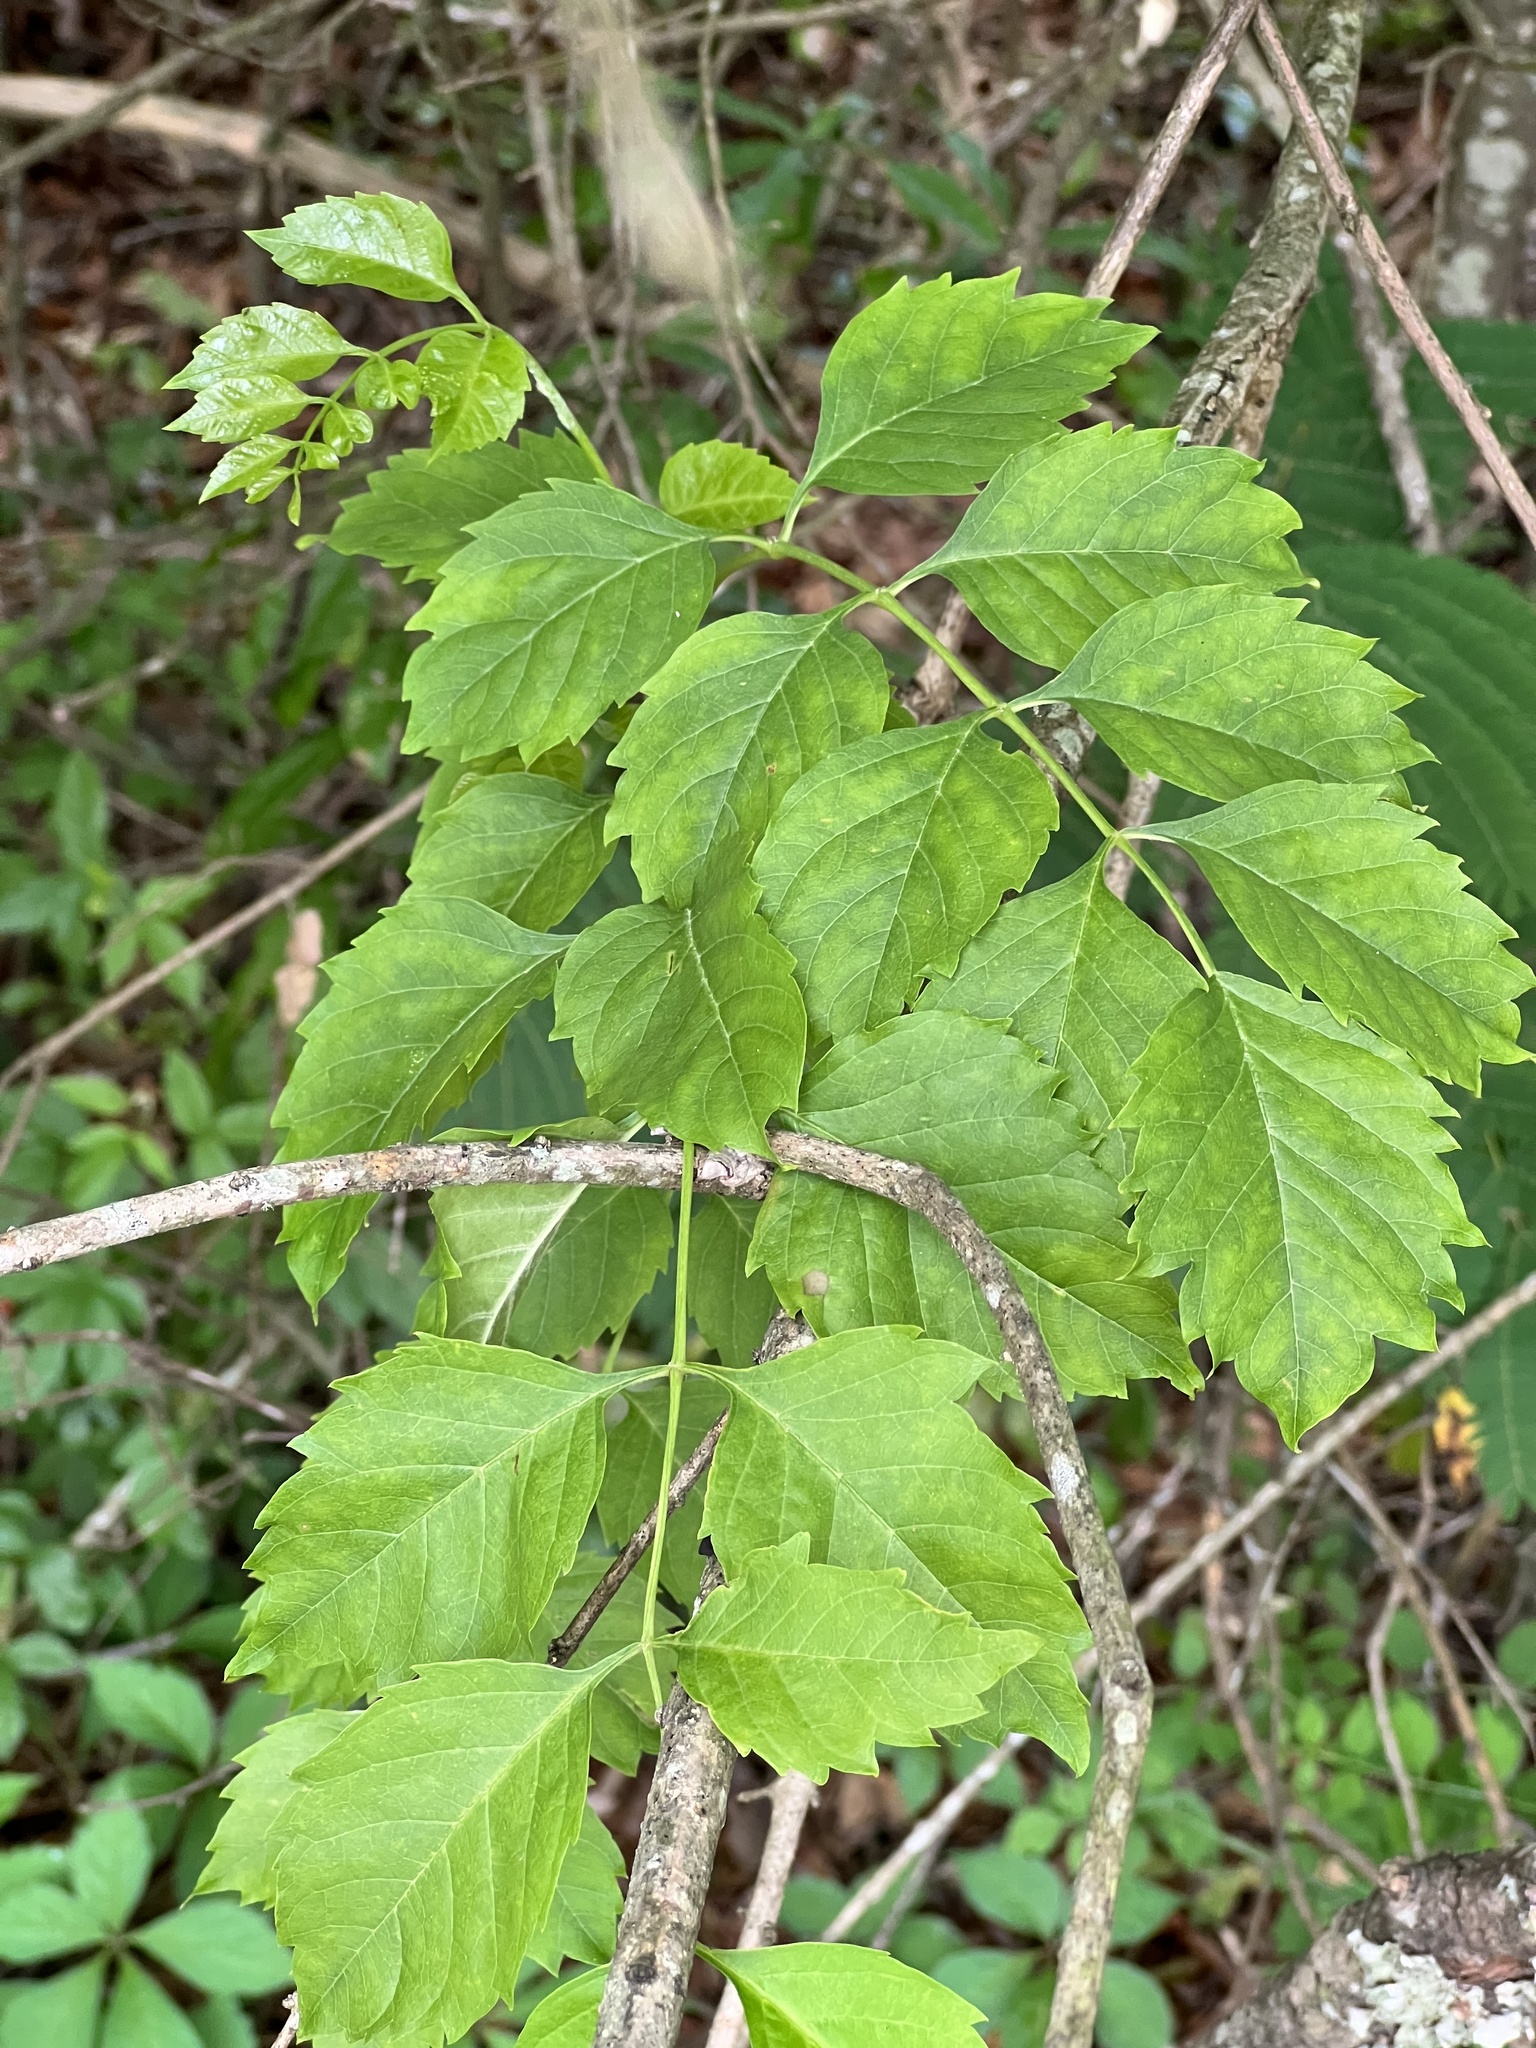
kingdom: Plantae
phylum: Tracheophyta
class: Magnoliopsida
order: Lamiales
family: Bignoniaceae
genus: Campsis
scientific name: Campsis radicans
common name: Trumpet-creeper
